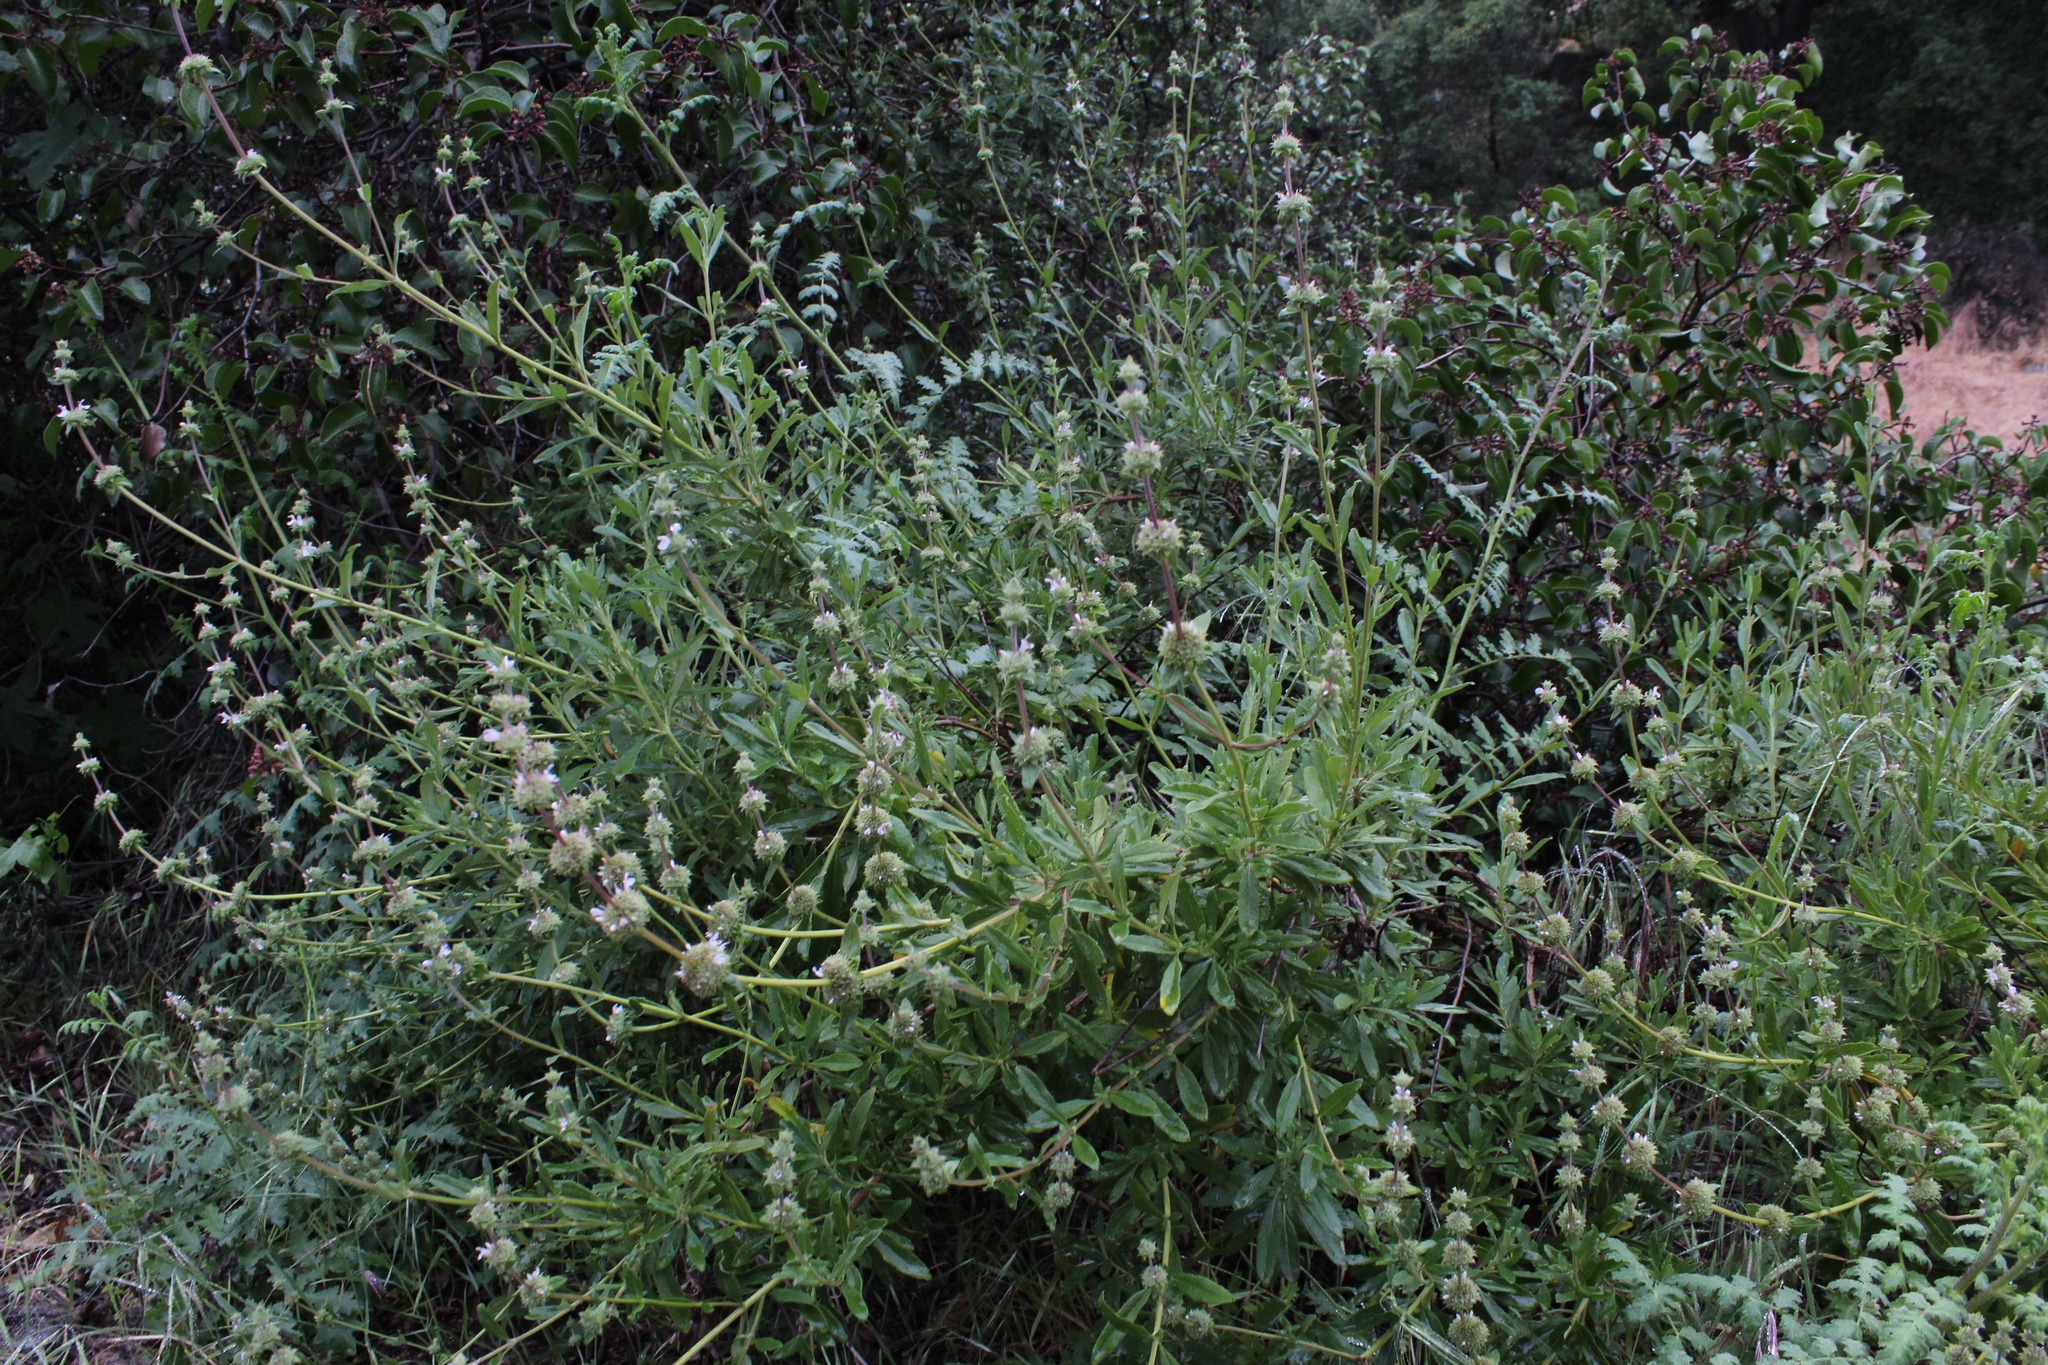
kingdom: Plantae
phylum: Tracheophyta
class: Magnoliopsida
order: Lamiales
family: Lamiaceae
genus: Salvia
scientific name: Salvia mellifera
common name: Black sage
